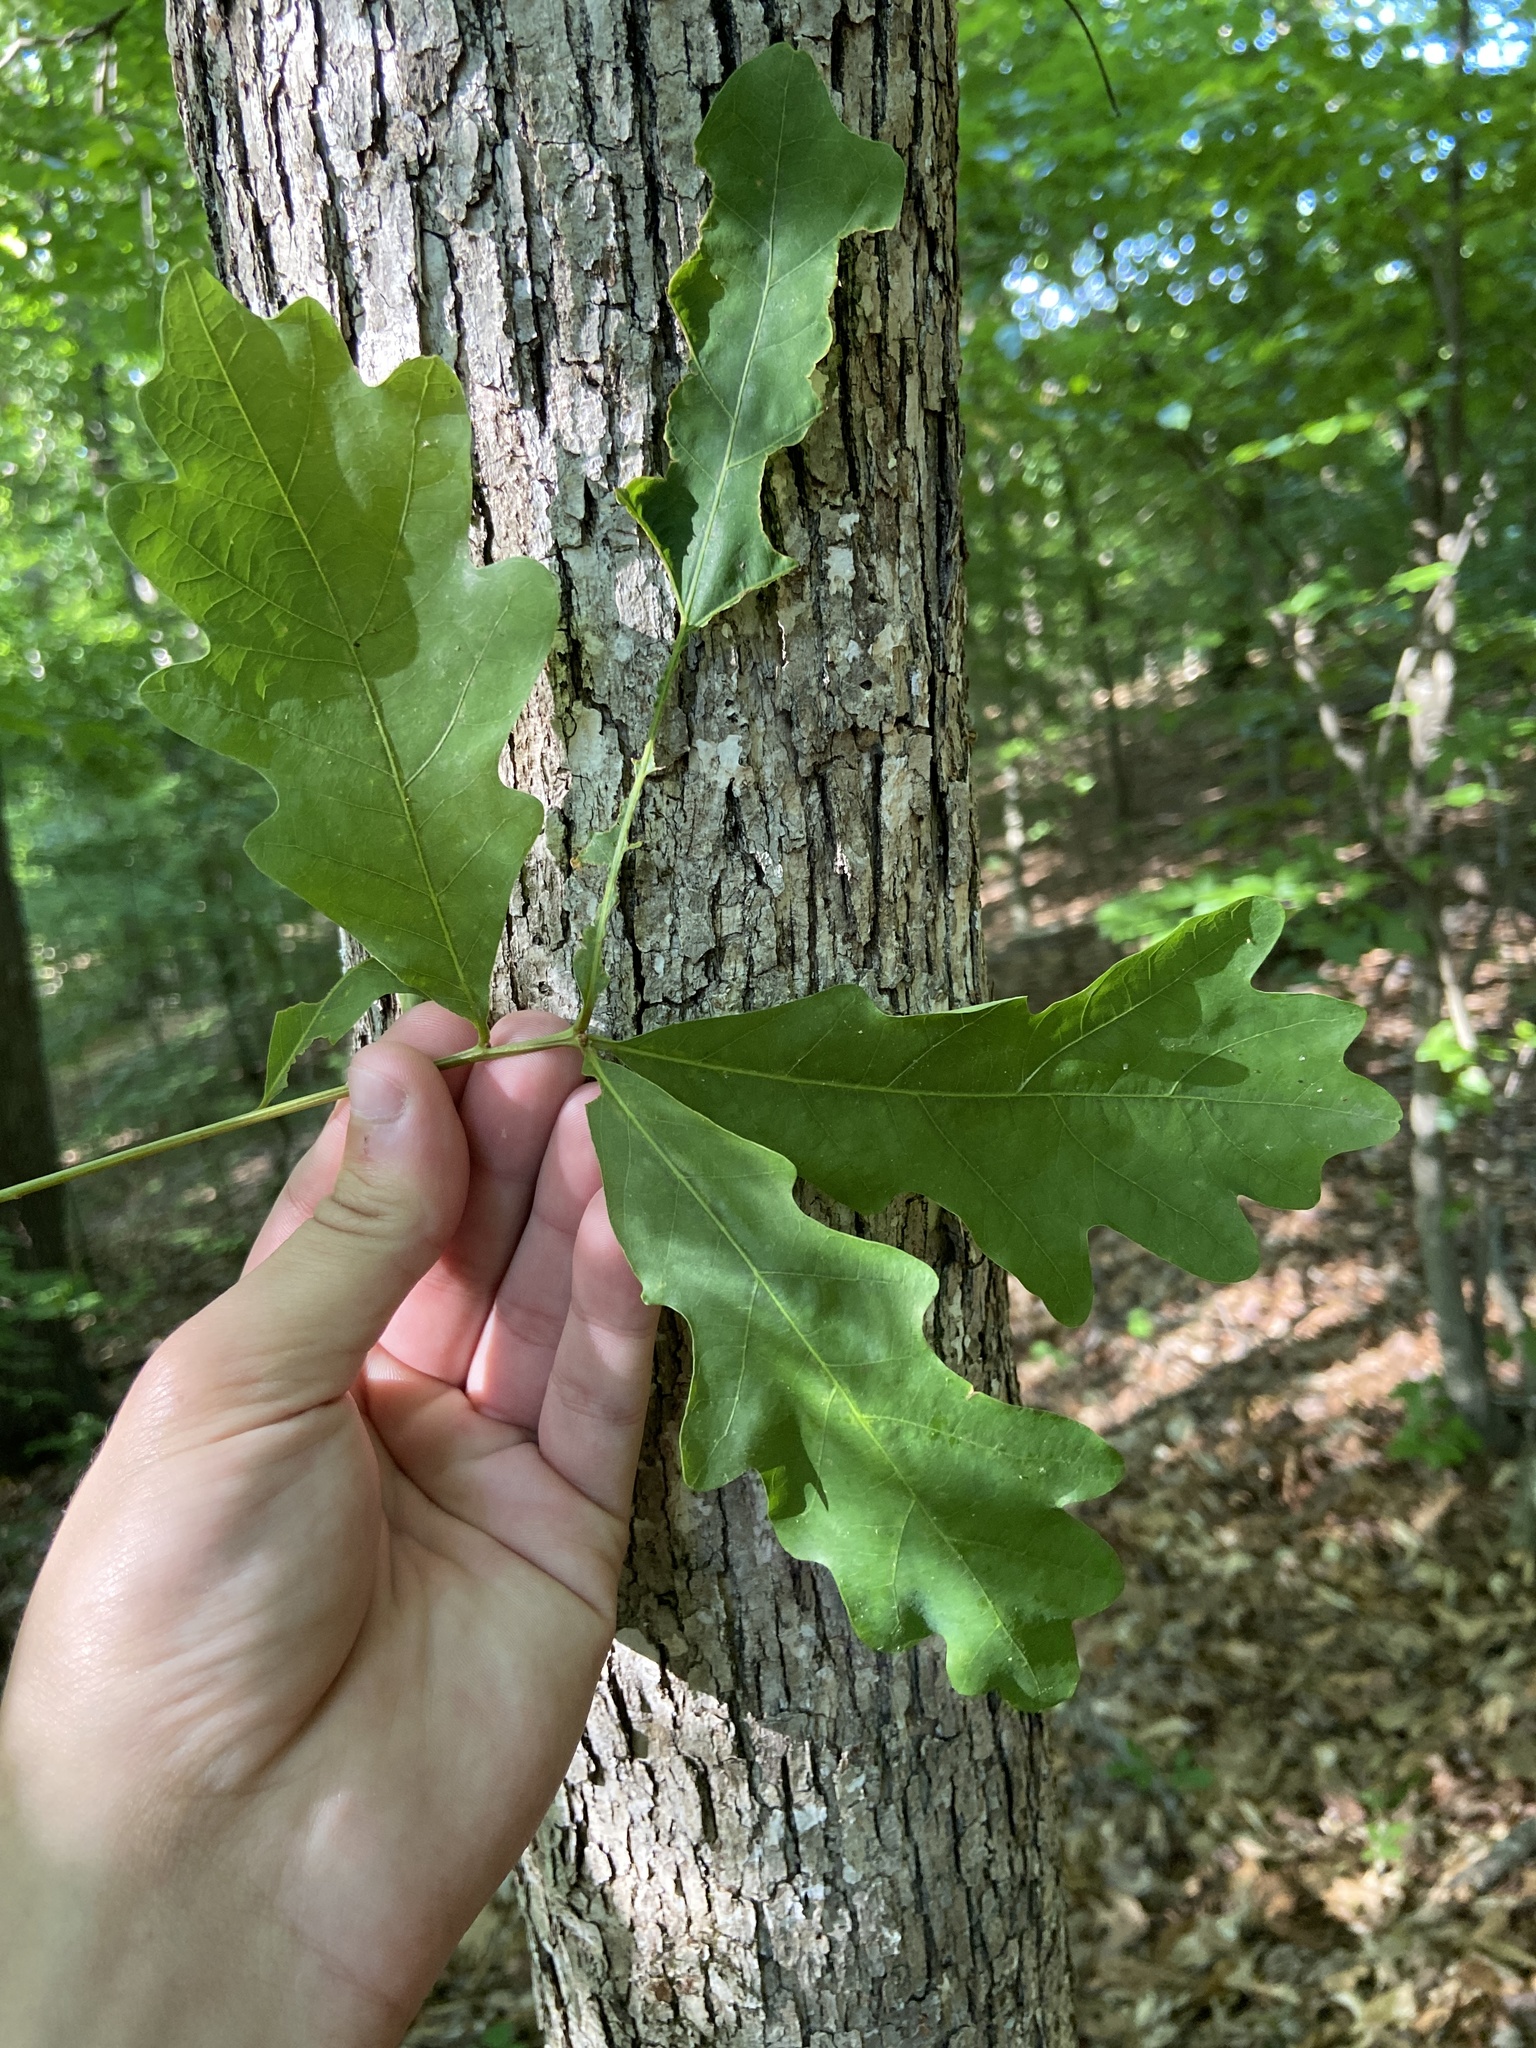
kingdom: Plantae
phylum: Tracheophyta
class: Magnoliopsida
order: Fagales
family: Fagaceae
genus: Quercus
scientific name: Quercus alba
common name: White oak
